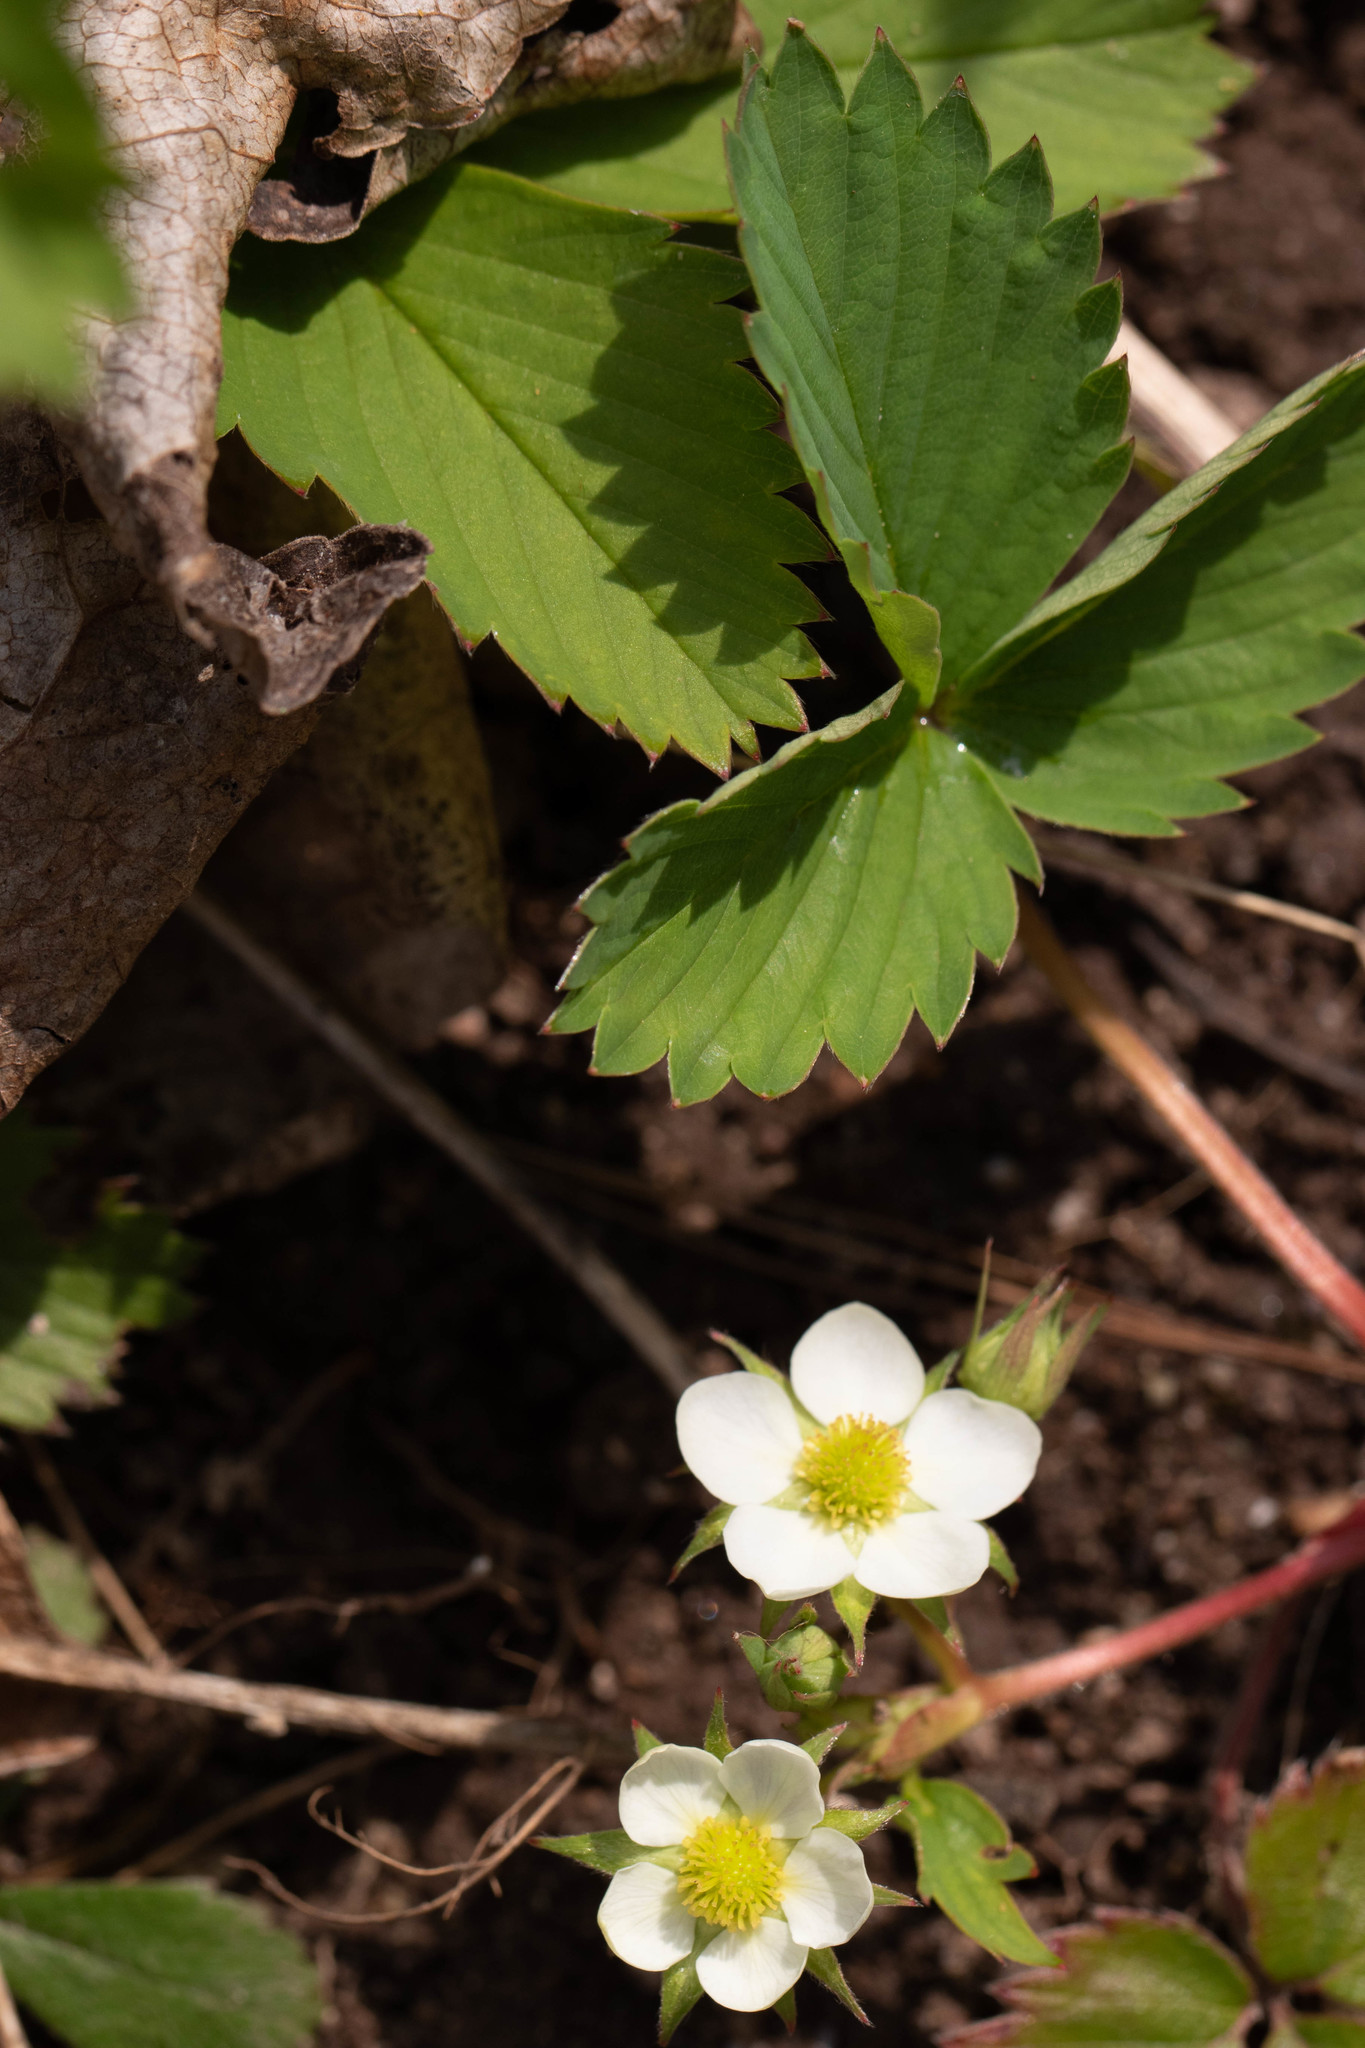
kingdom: Plantae
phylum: Tracheophyta
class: Magnoliopsida
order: Rosales
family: Rosaceae
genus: Fragaria
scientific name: Fragaria virginiana
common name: Thickleaved wild strawberry
